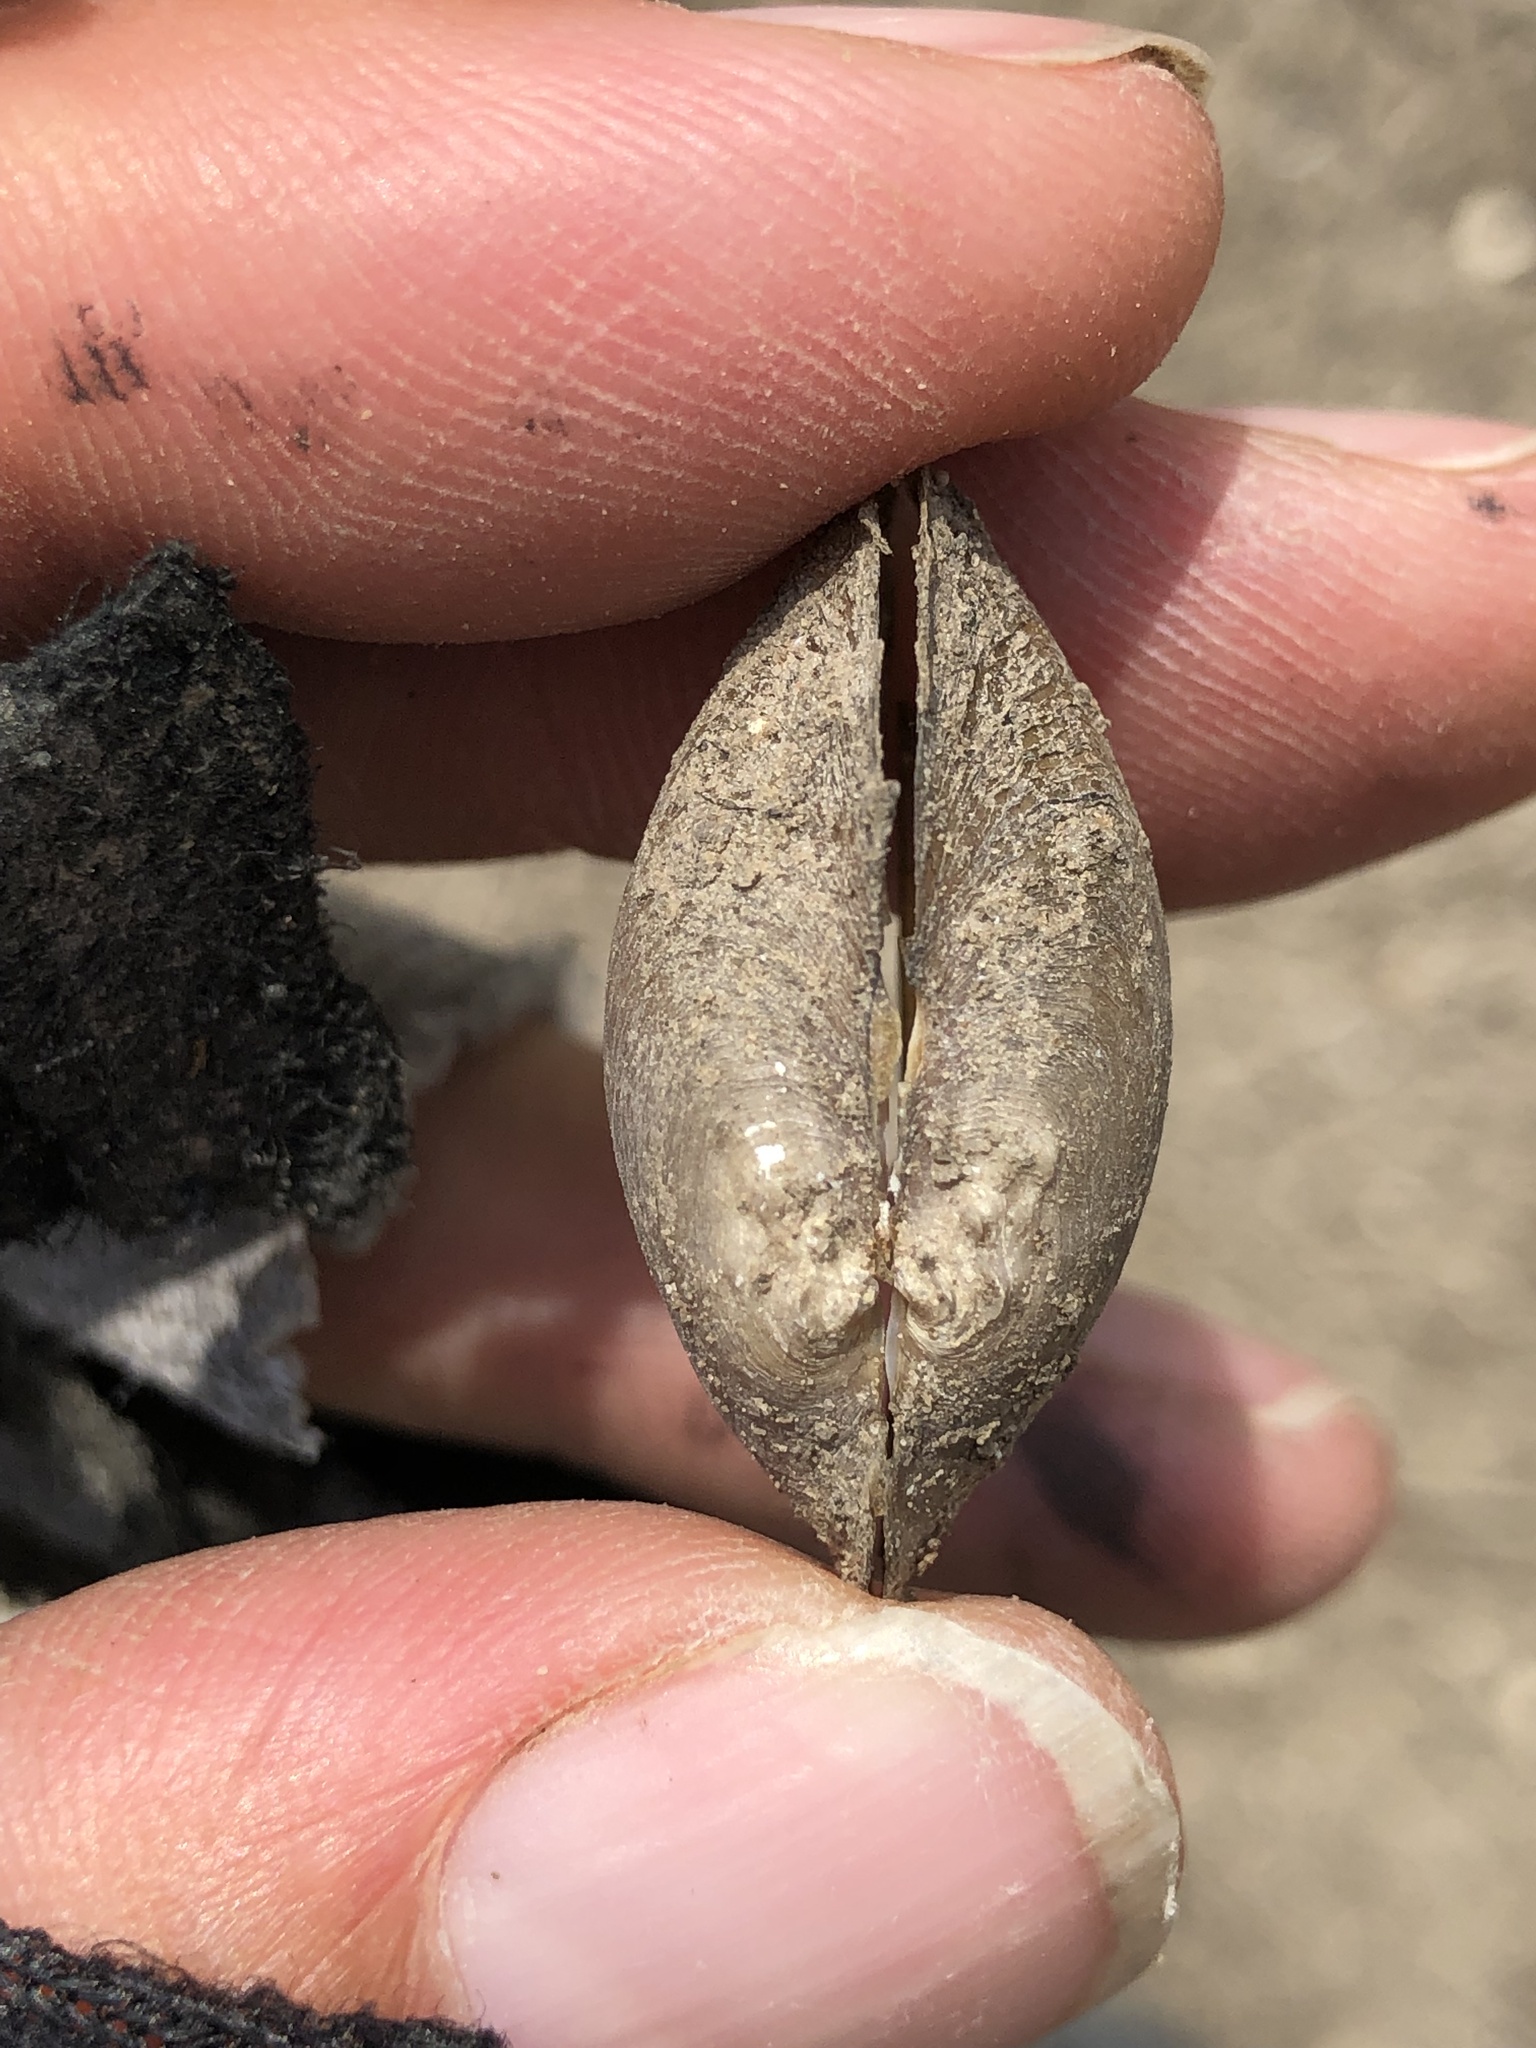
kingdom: Animalia
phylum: Mollusca
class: Bivalvia
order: Unionida
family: Unionidae
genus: Pyganodon
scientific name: Pyganodon grandis
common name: Giant floater
